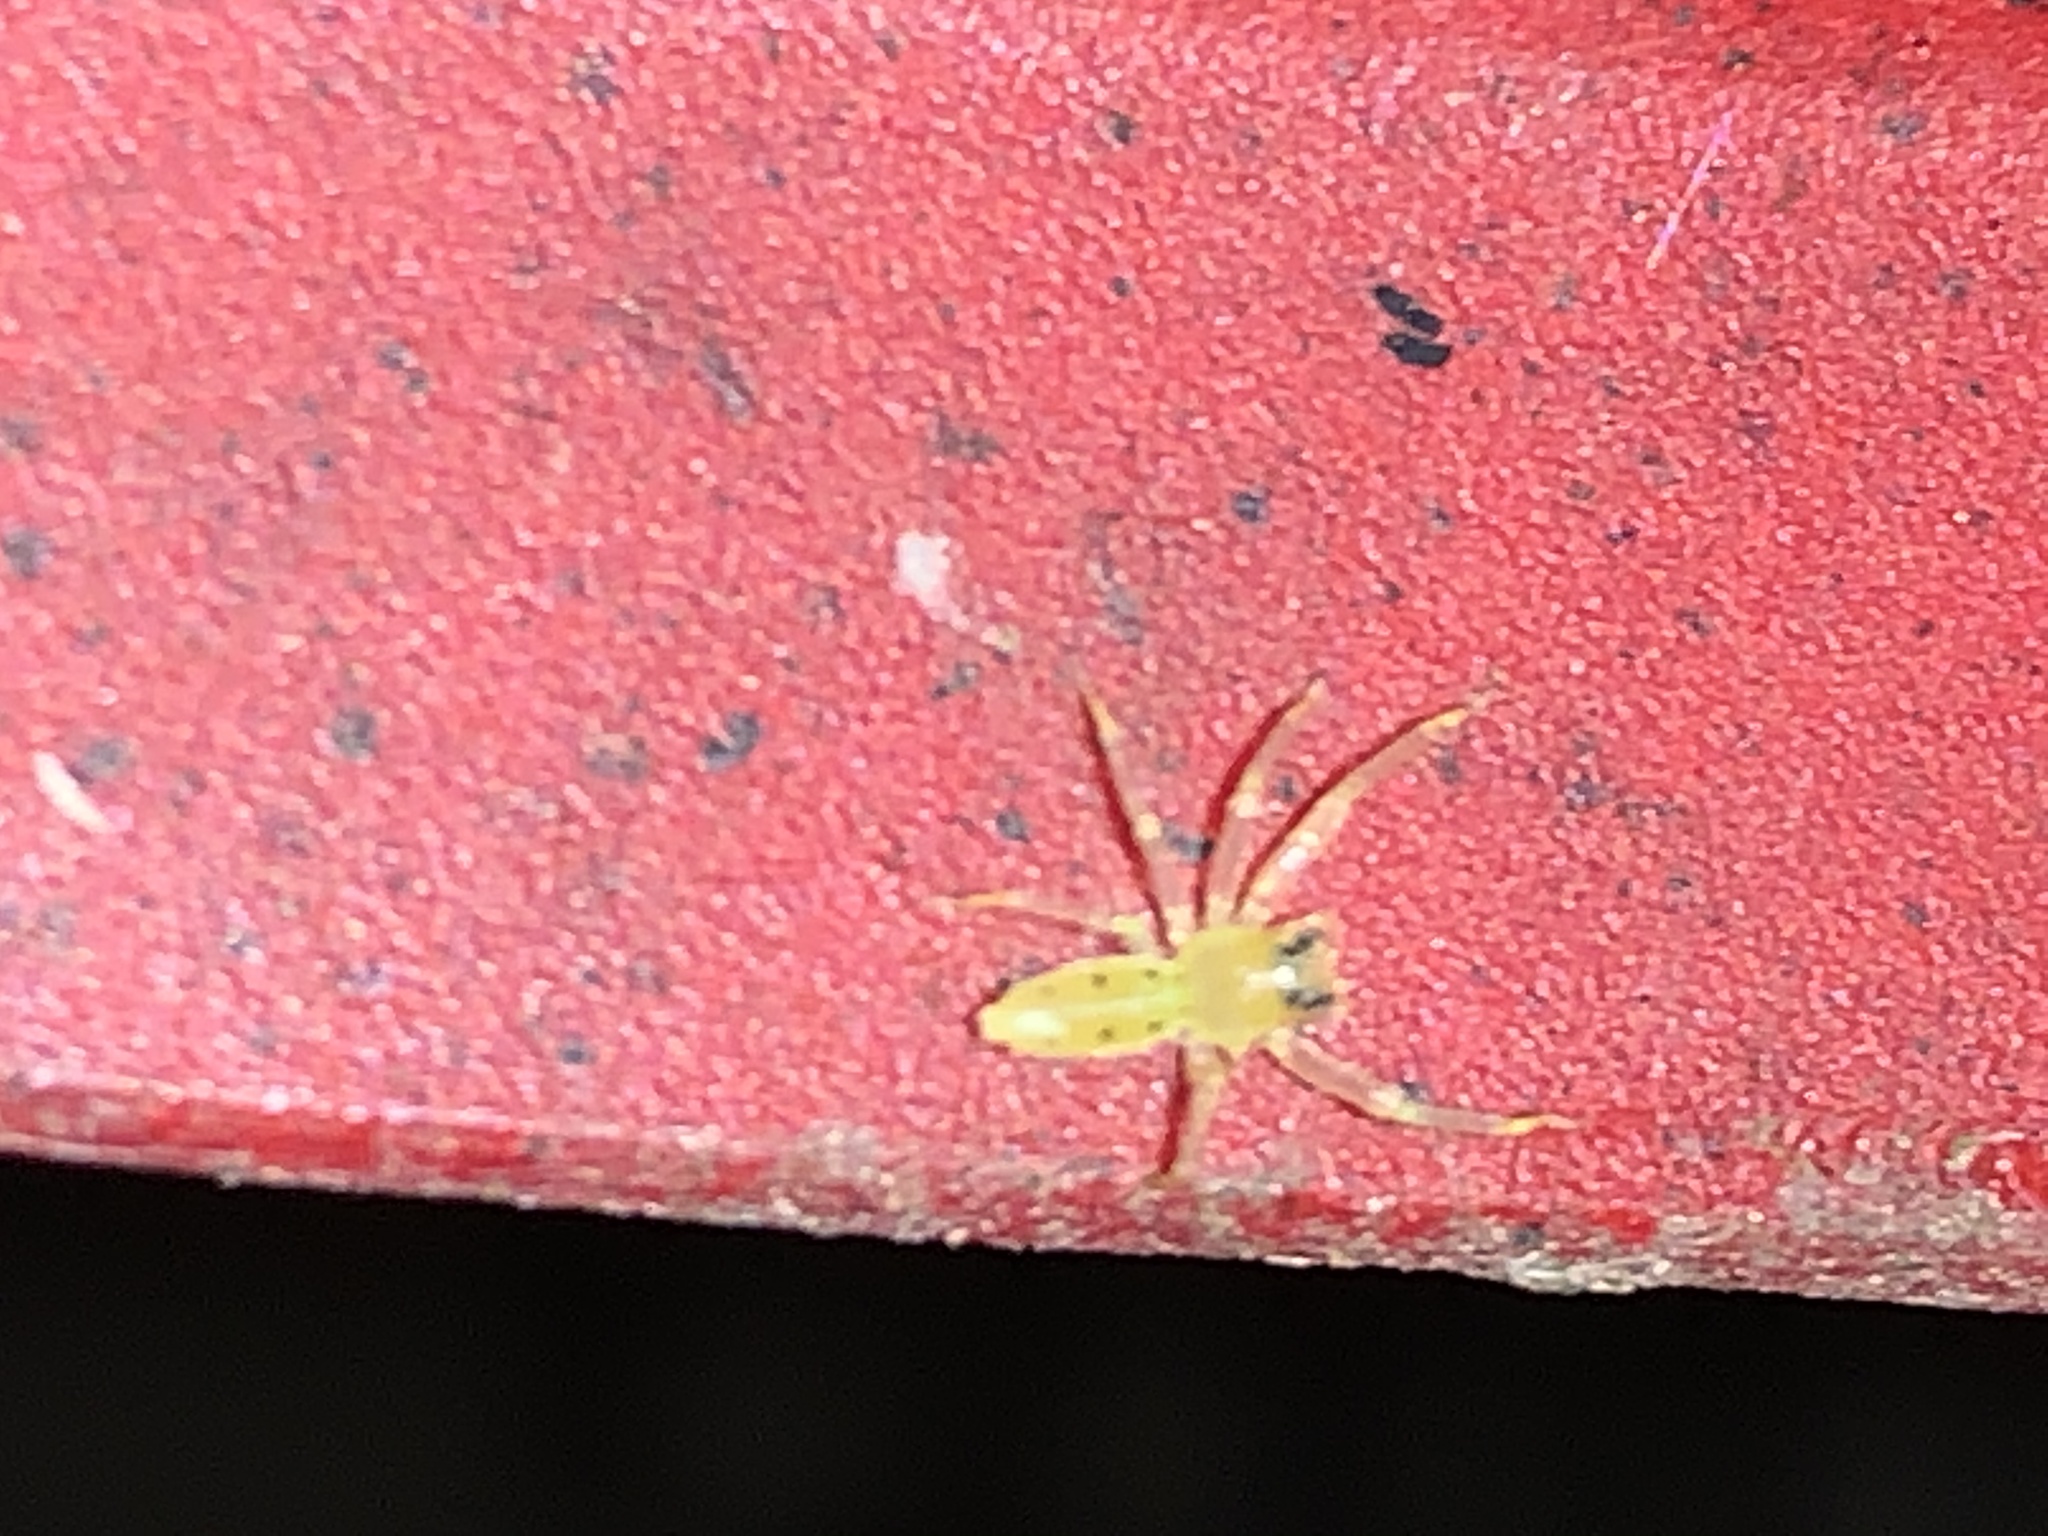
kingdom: Animalia
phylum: Arthropoda
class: Arachnida
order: Araneae
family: Salticidae
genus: Lyssomanes
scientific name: Lyssomanes viridis
